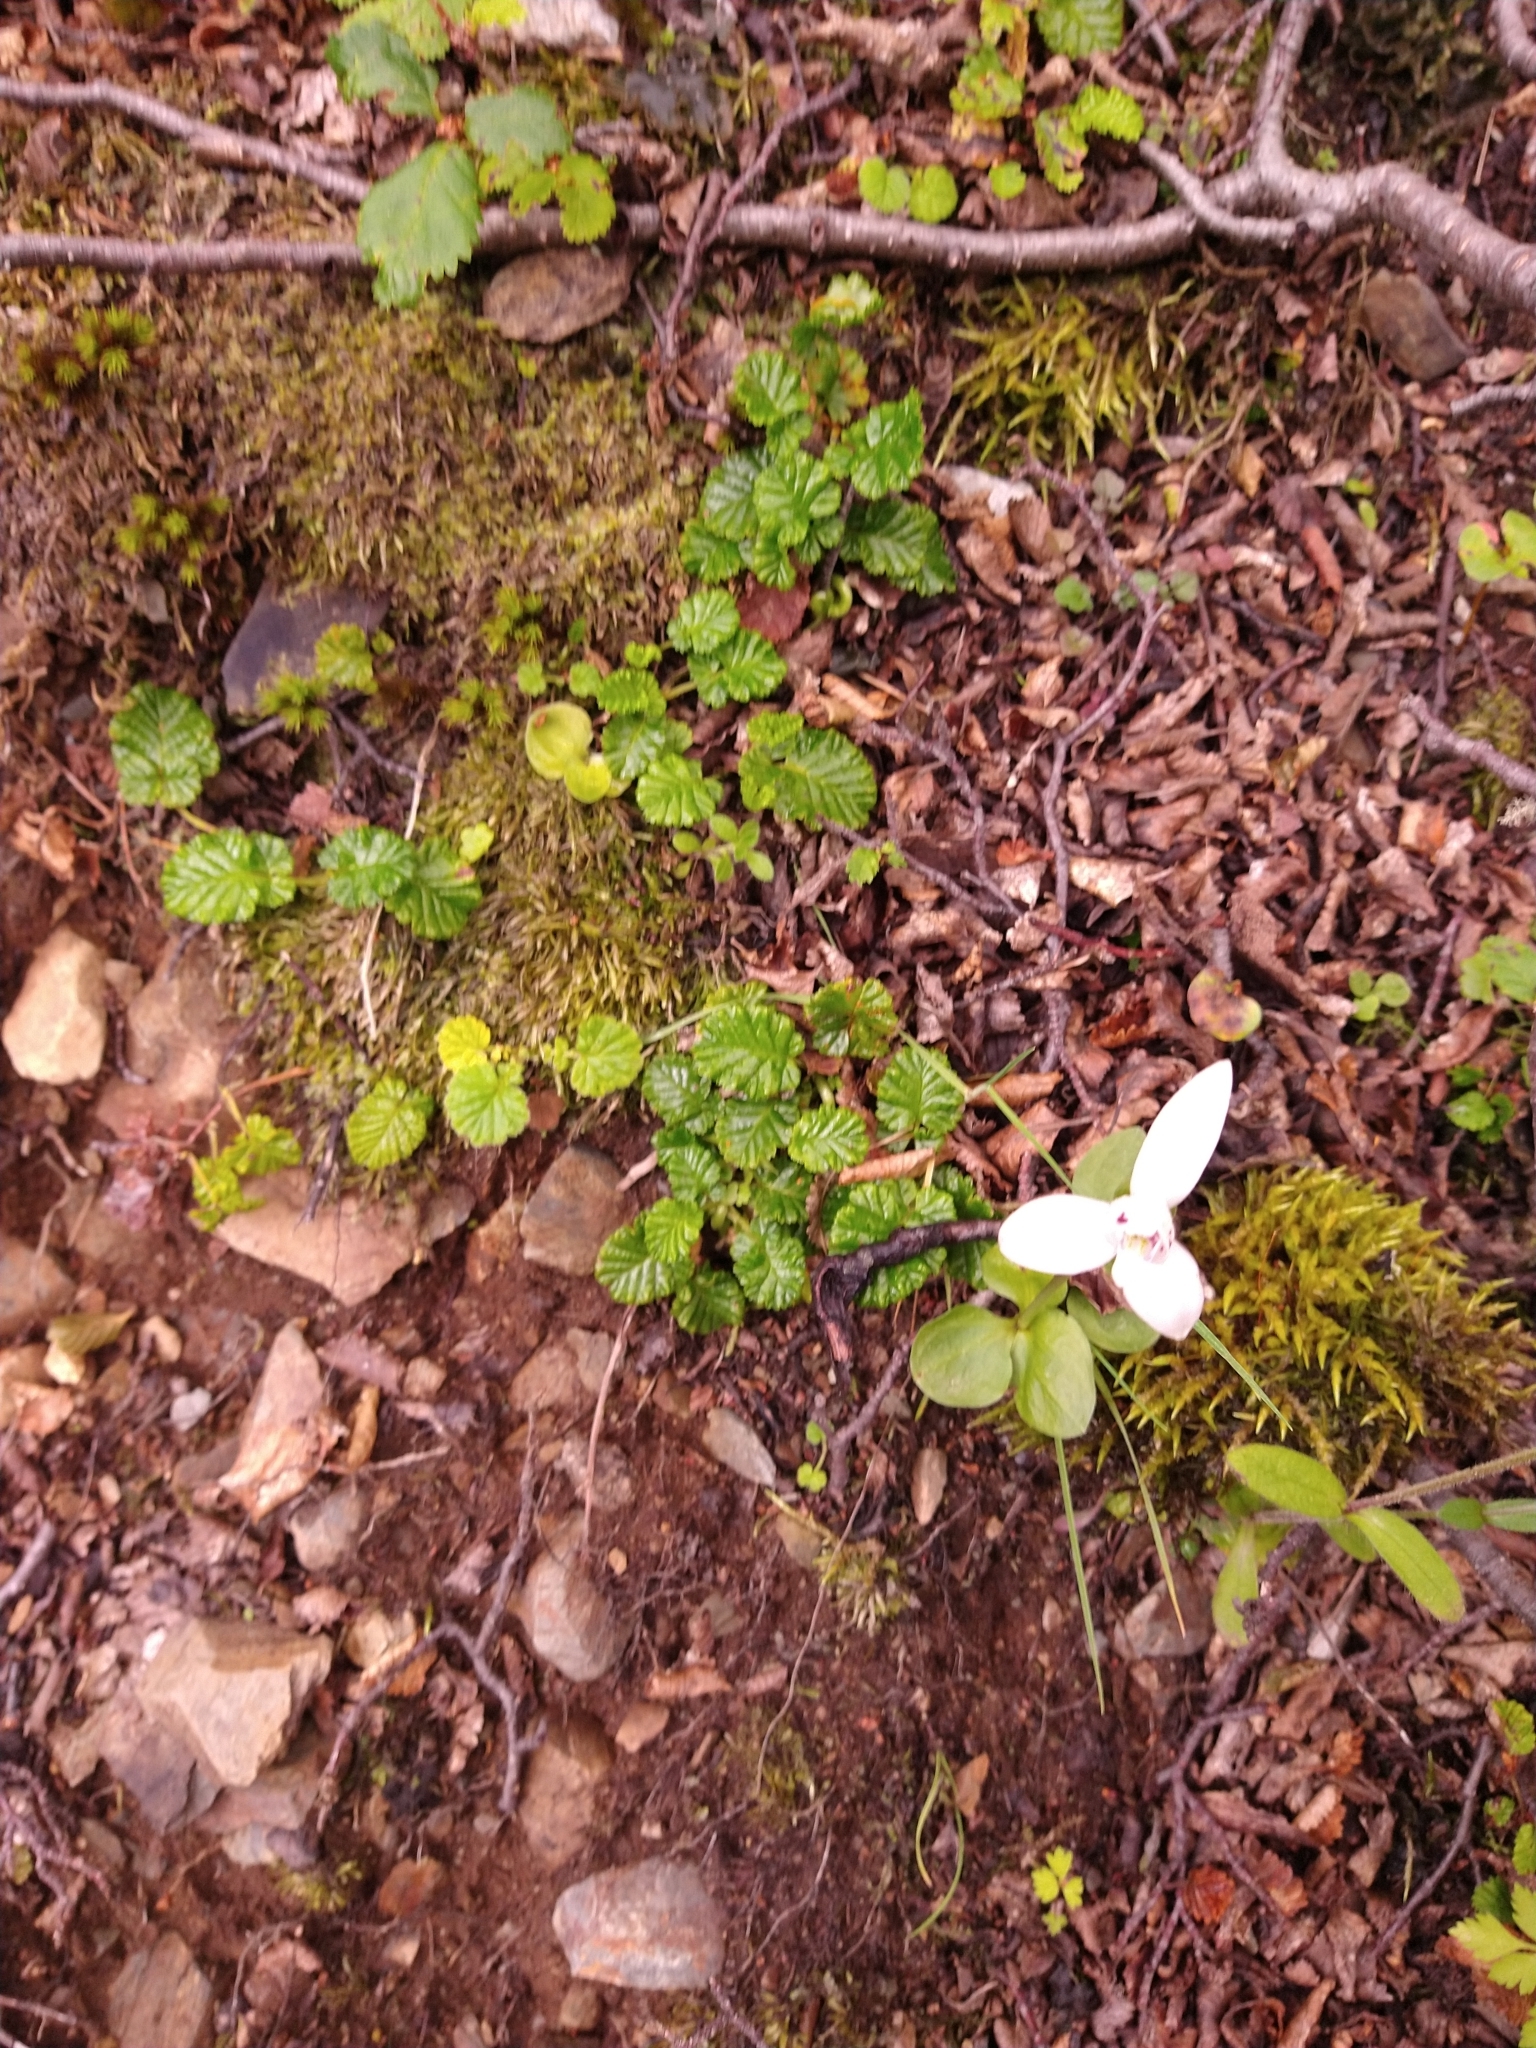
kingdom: Plantae
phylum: Tracheophyta
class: Liliopsida
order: Asparagales
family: Orchidaceae
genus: Codonorchis
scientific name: Codonorchis lessonii
